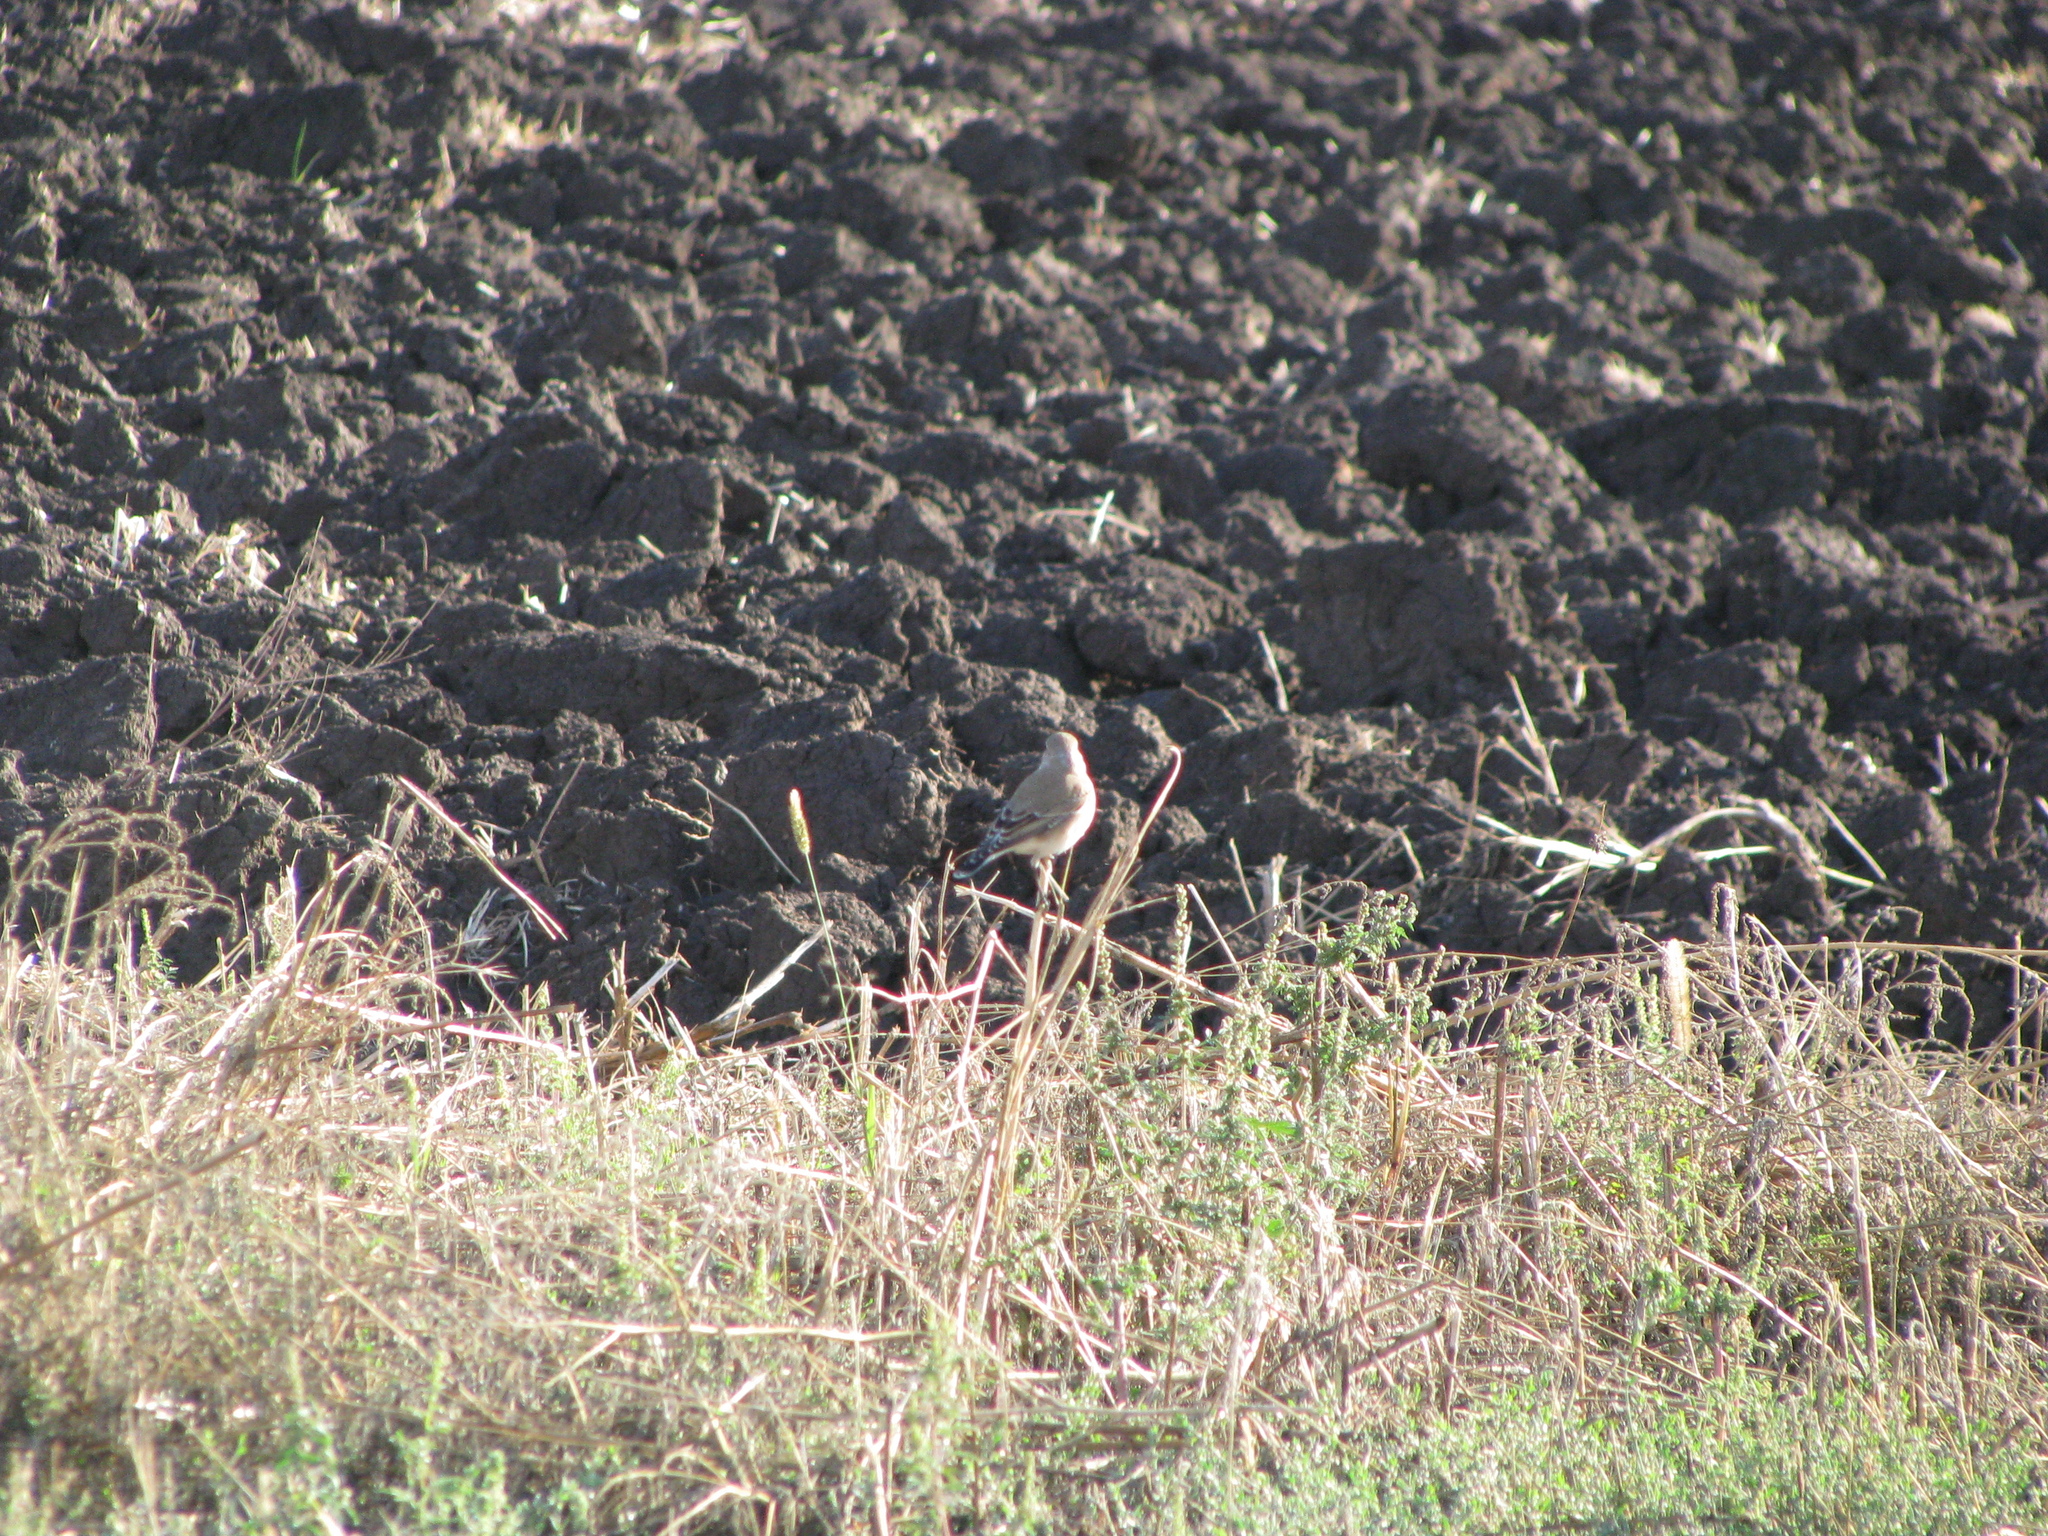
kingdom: Animalia
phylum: Chordata
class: Aves
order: Passeriformes
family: Muscicapidae
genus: Oenanthe
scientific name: Oenanthe oenanthe
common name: Northern wheatear
